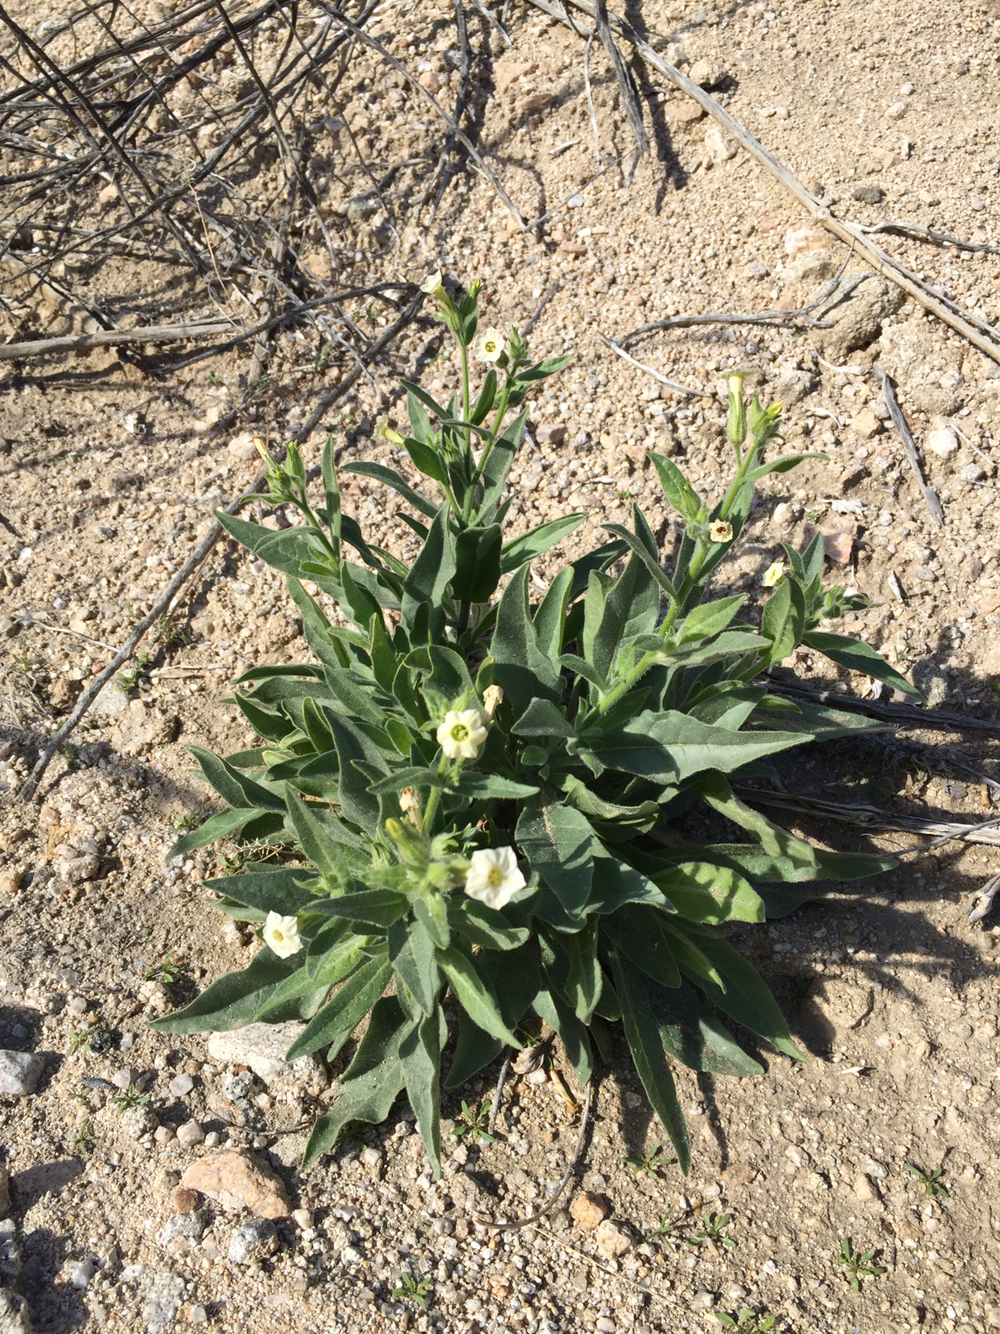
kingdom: Plantae
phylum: Tracheophyta
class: Magnoliopsida
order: Solanales
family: Solanaceae
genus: Nicotiana
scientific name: Nicotiana obtusifolia
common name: Desert tobacco
